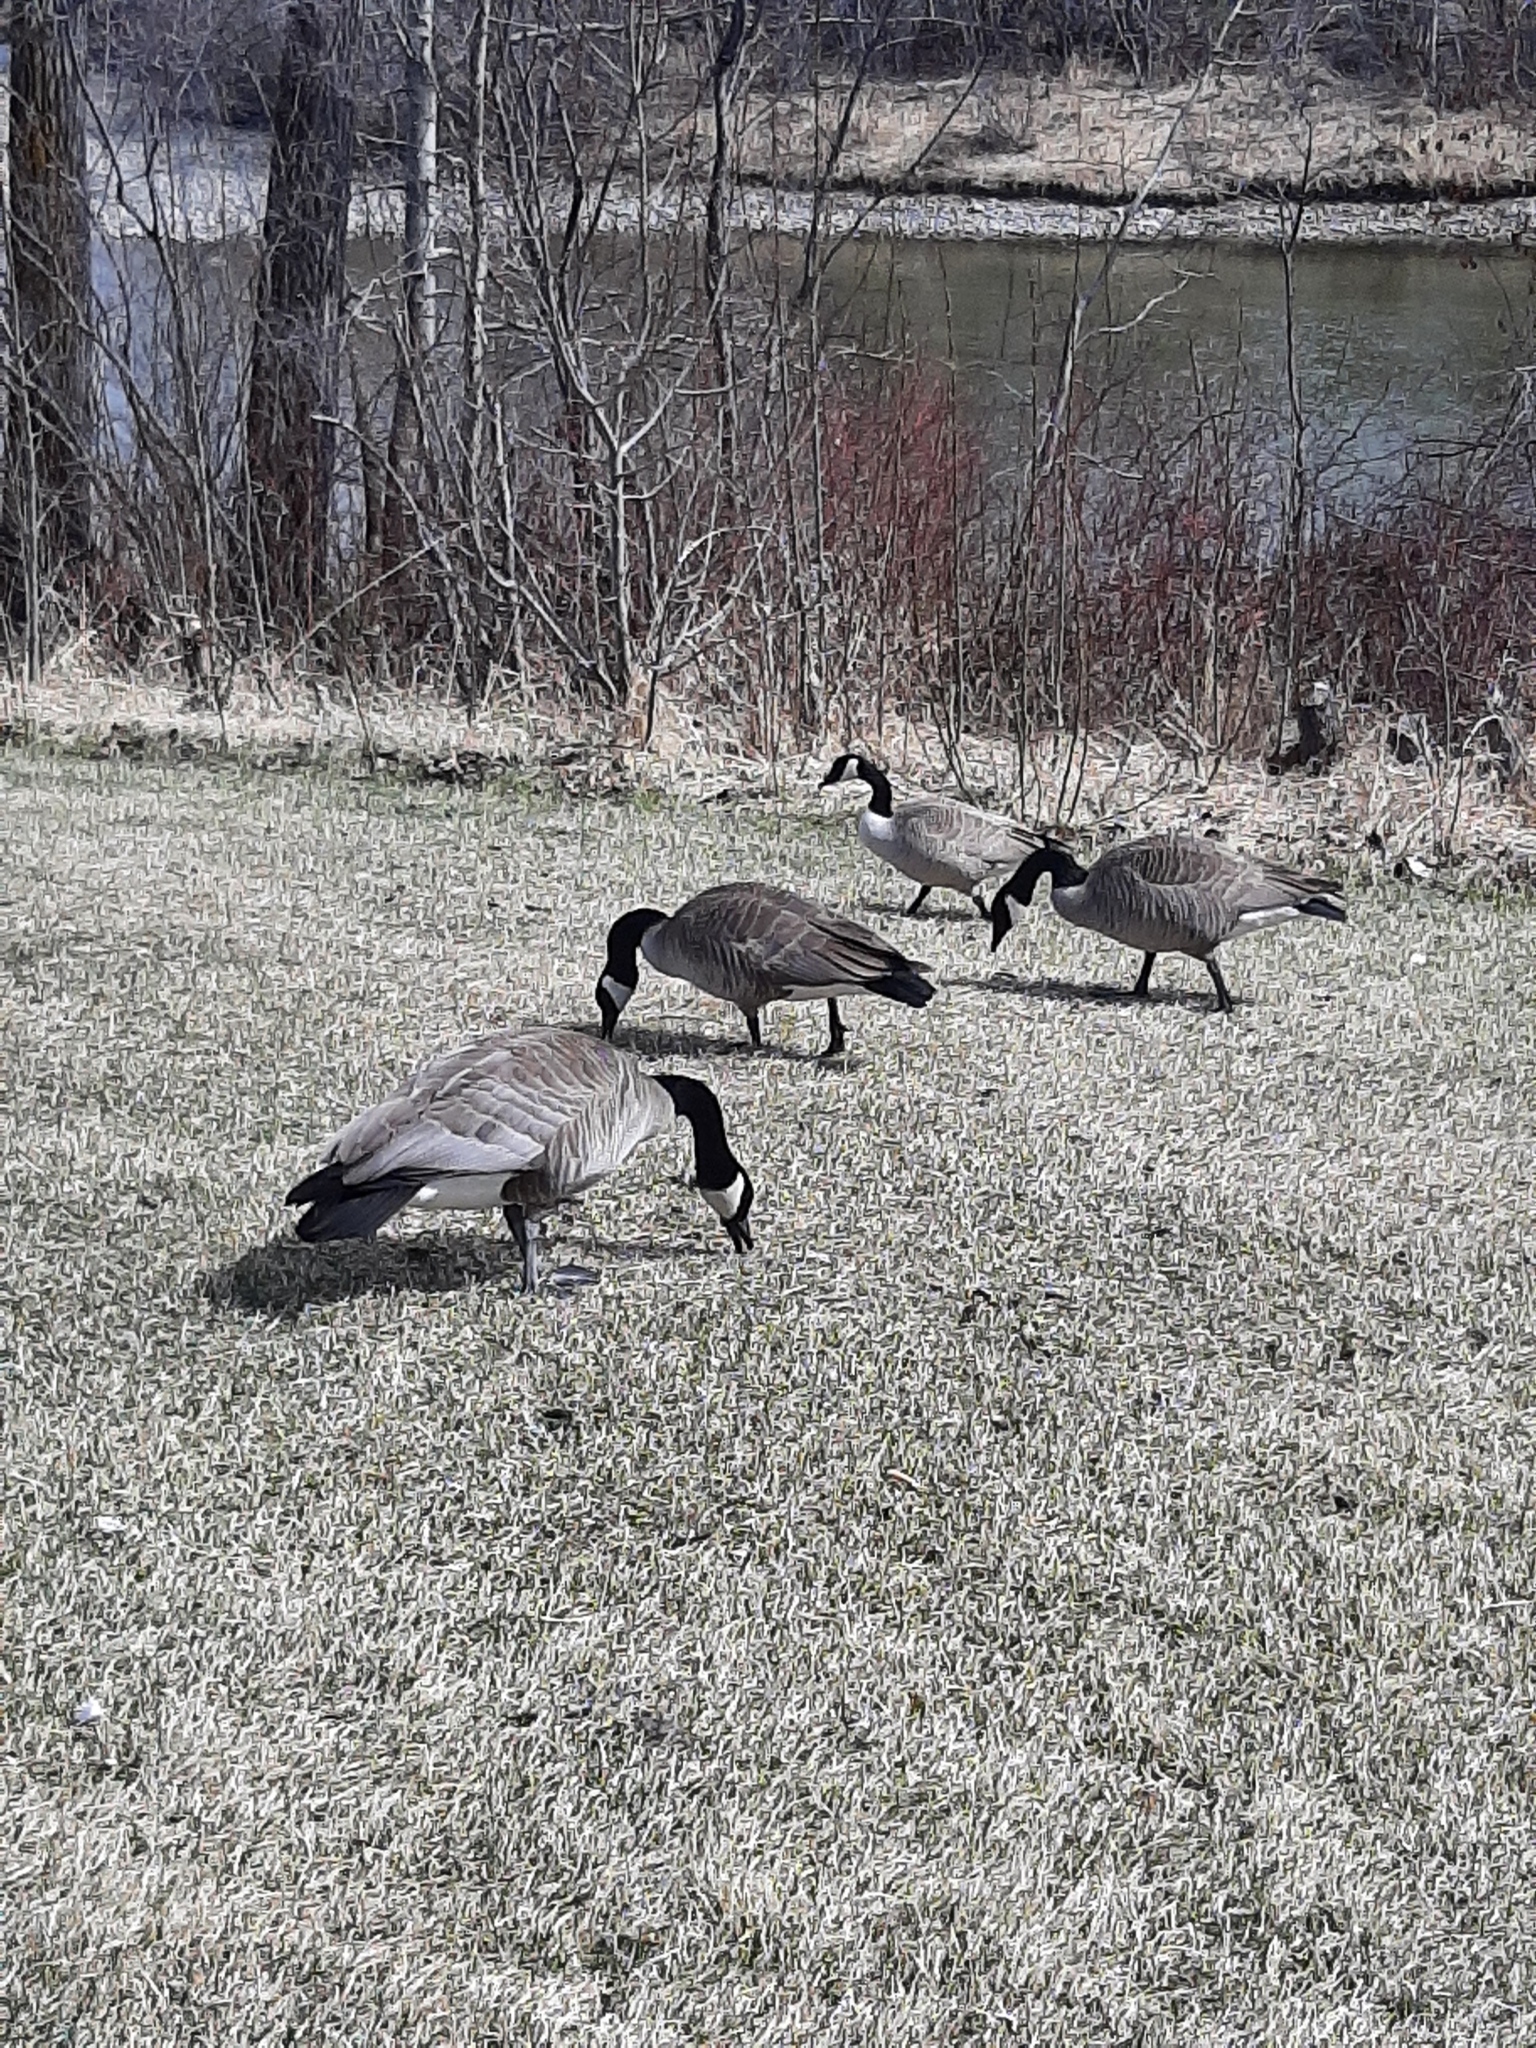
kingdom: Animalia
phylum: Chordata
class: Aves
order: Anseriformes
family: Anatidae
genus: Branta
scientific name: Branta canadensis
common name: Canada goose
